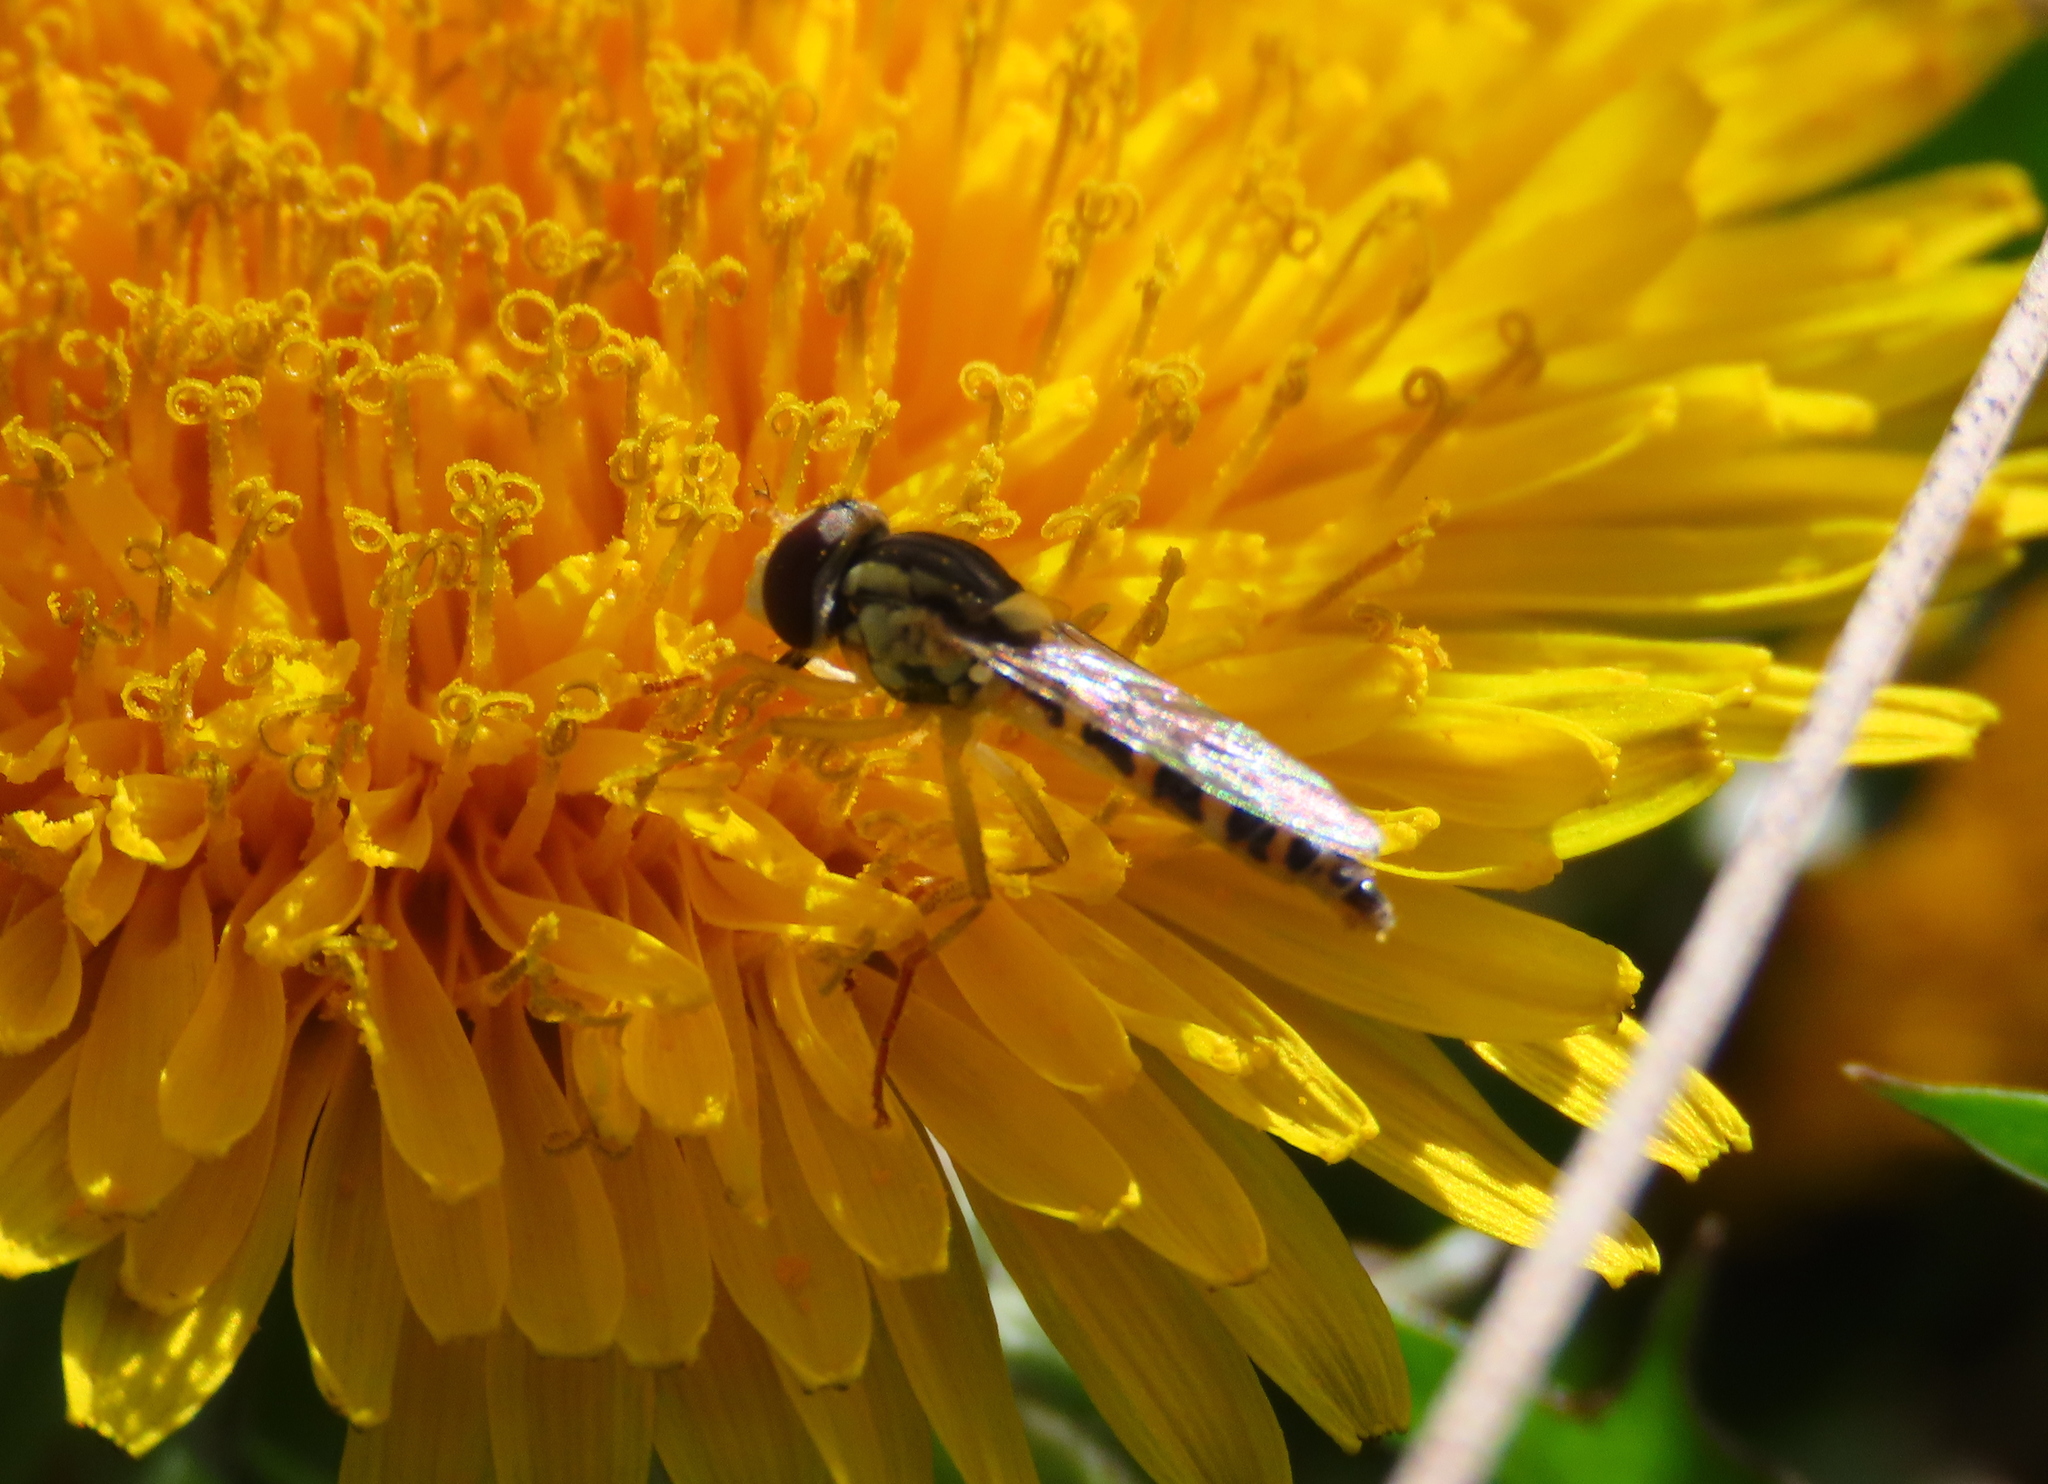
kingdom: Animalia
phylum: Arthropoda
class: Insecta
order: Diptera
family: Syrphidae
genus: Sphaerophoria
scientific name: Sphaerophoria
